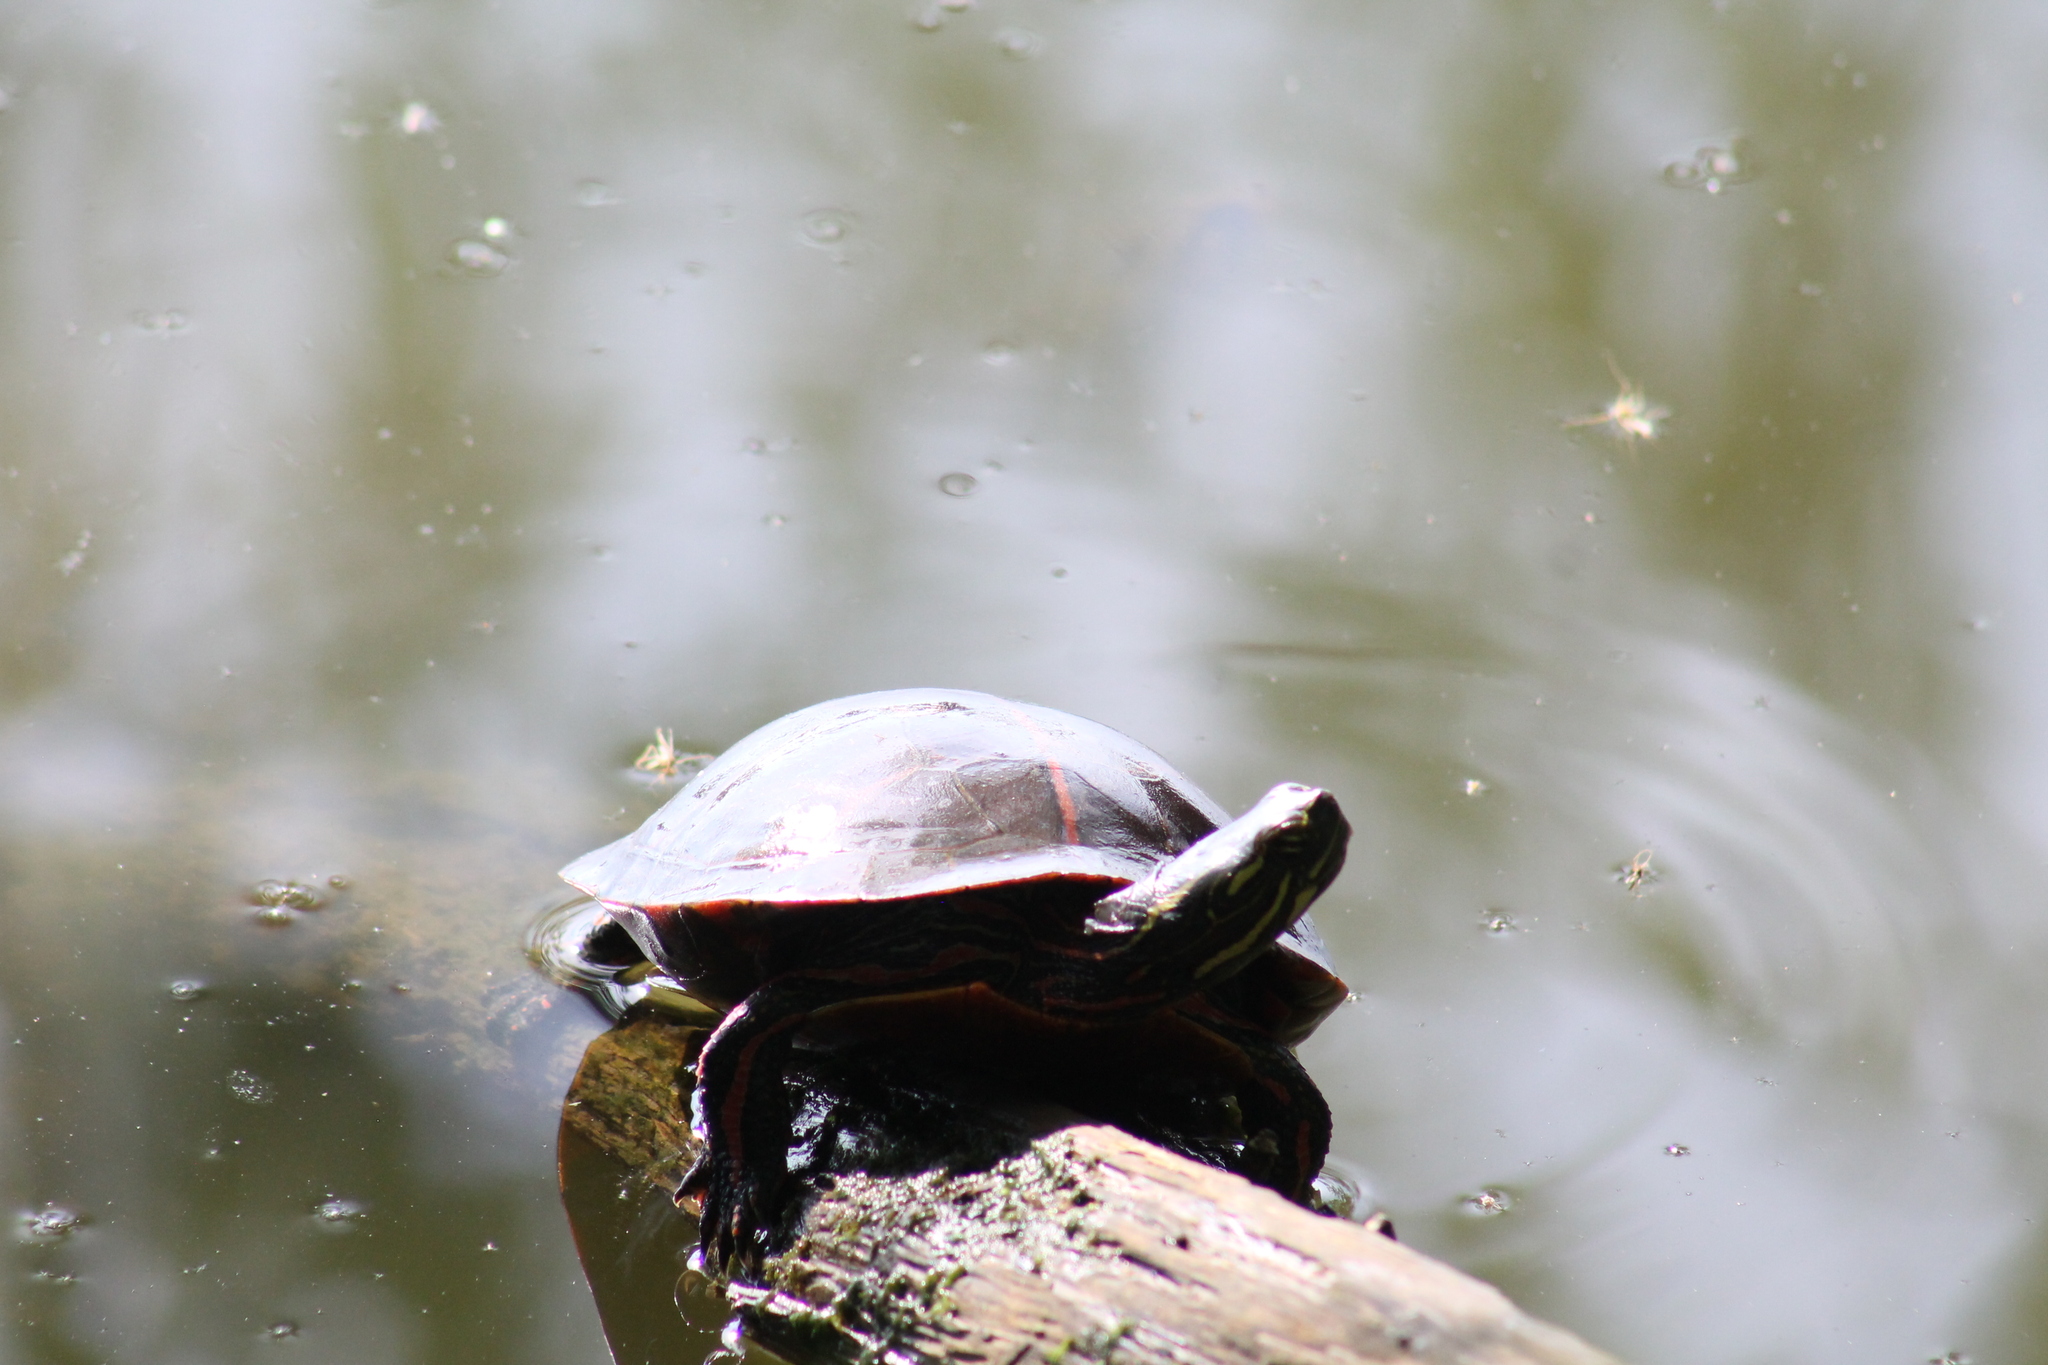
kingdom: Animalia
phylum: Chordata
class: Testudines
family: Emydidae
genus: Chrysemys
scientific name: Chrysemys dorsalis
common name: Southern painted turtle
